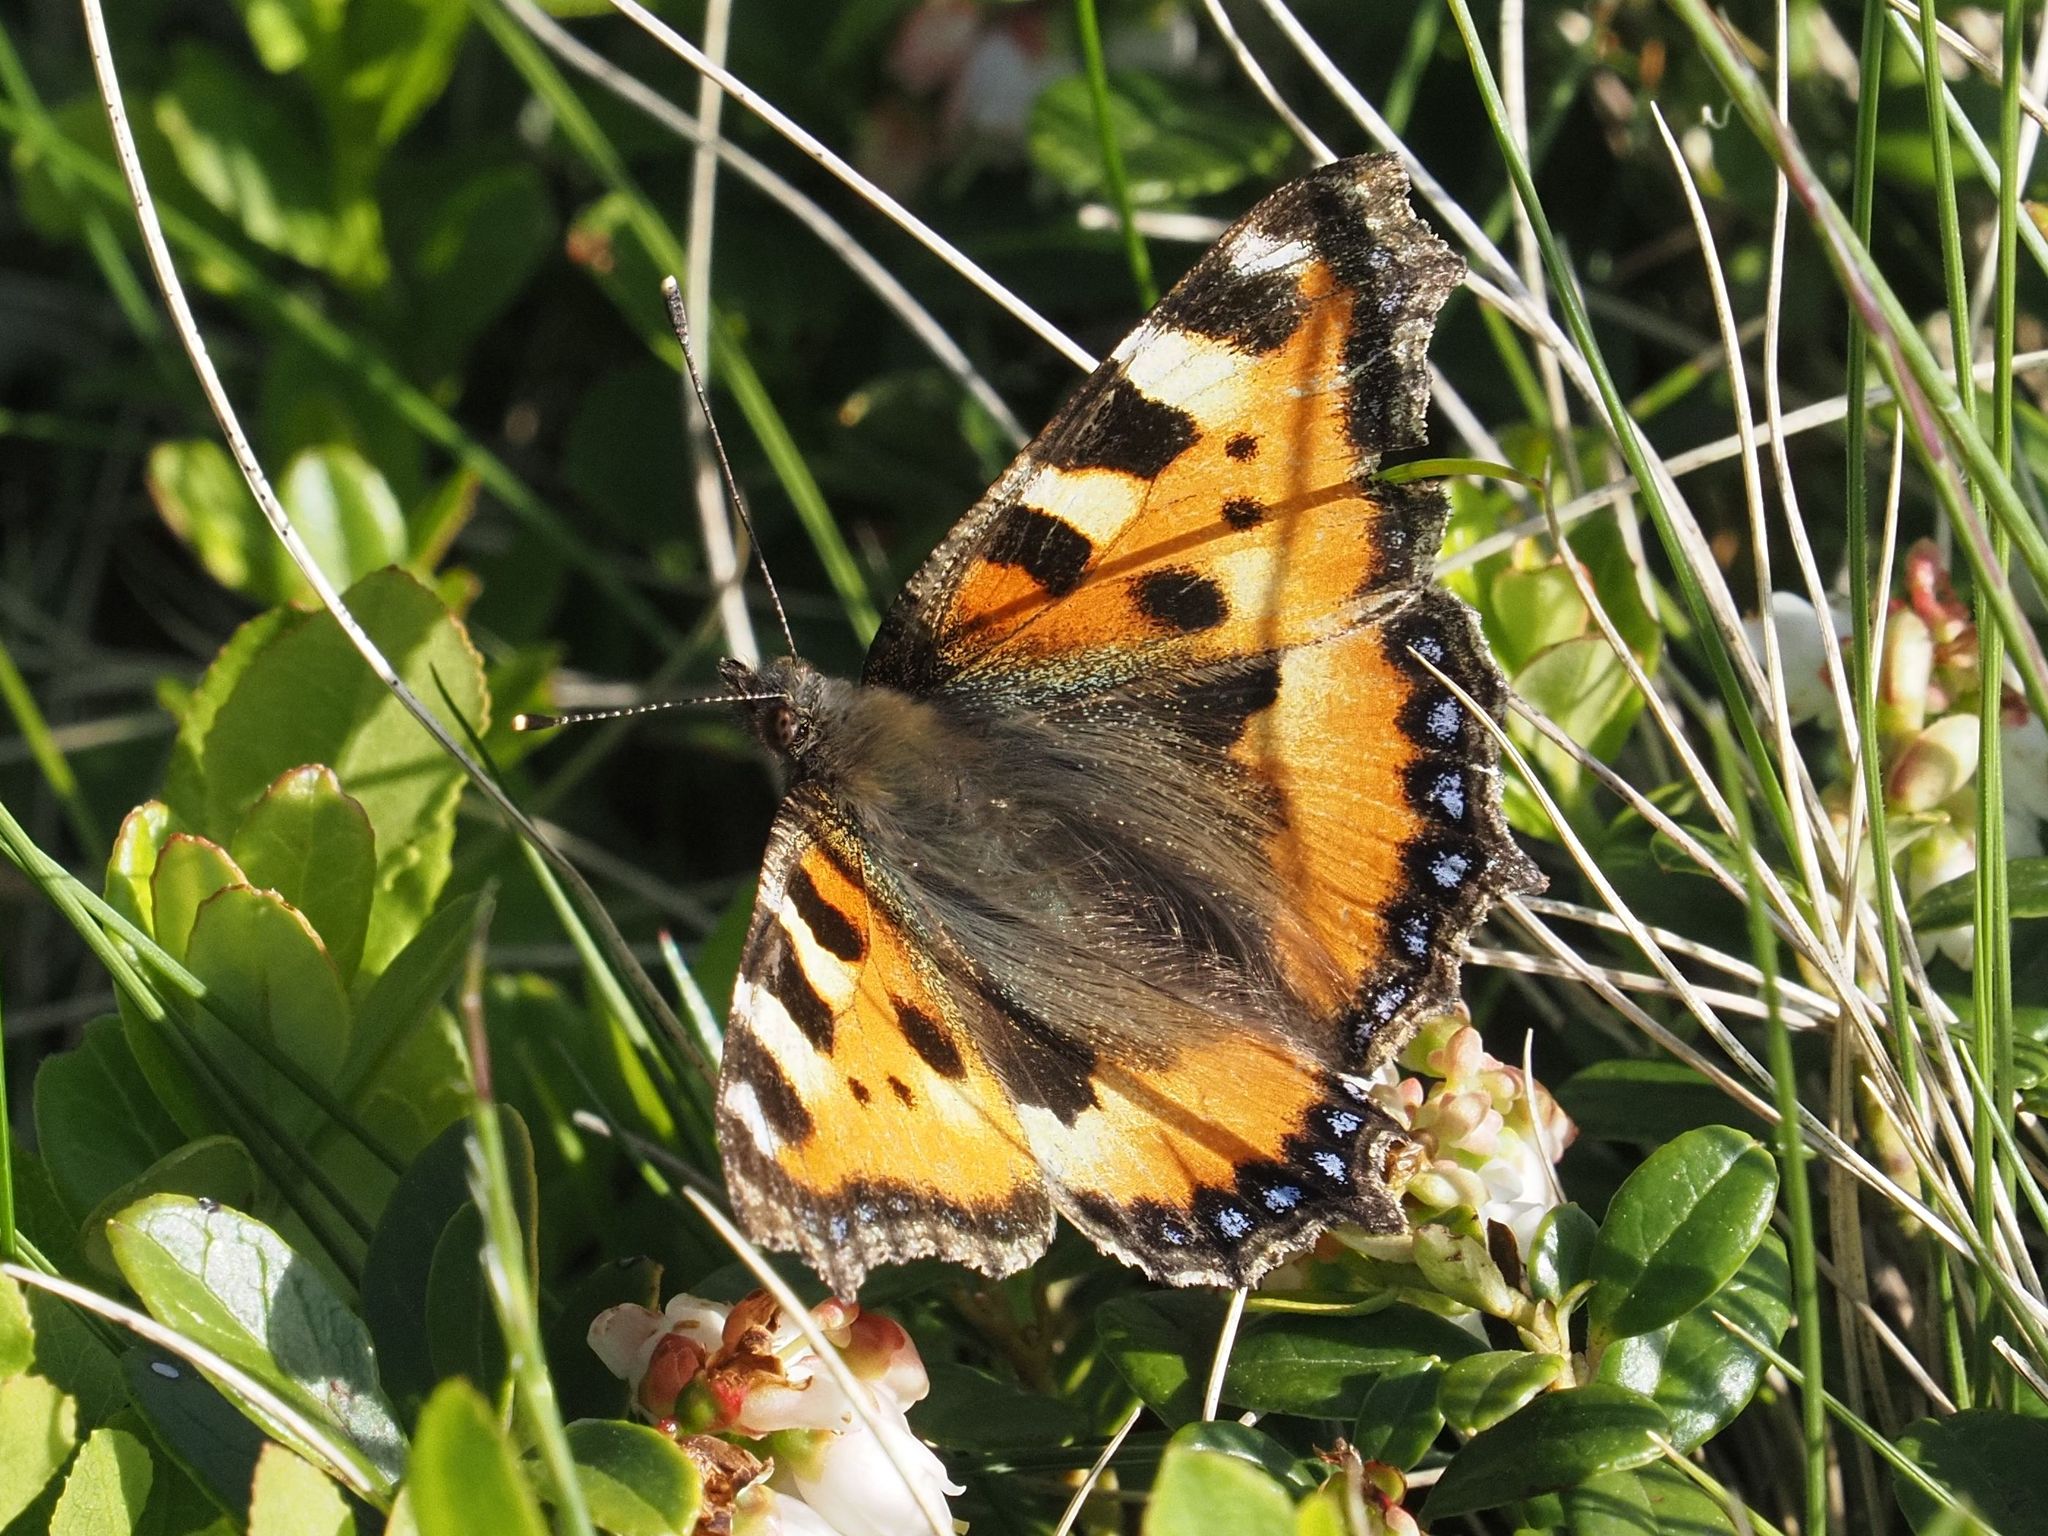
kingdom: Animalia
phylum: Arthropoda
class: Insecta
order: Lepidoptera
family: Nymphalidae
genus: Aglais
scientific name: Aglais urticae
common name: Small tortoiseshell
